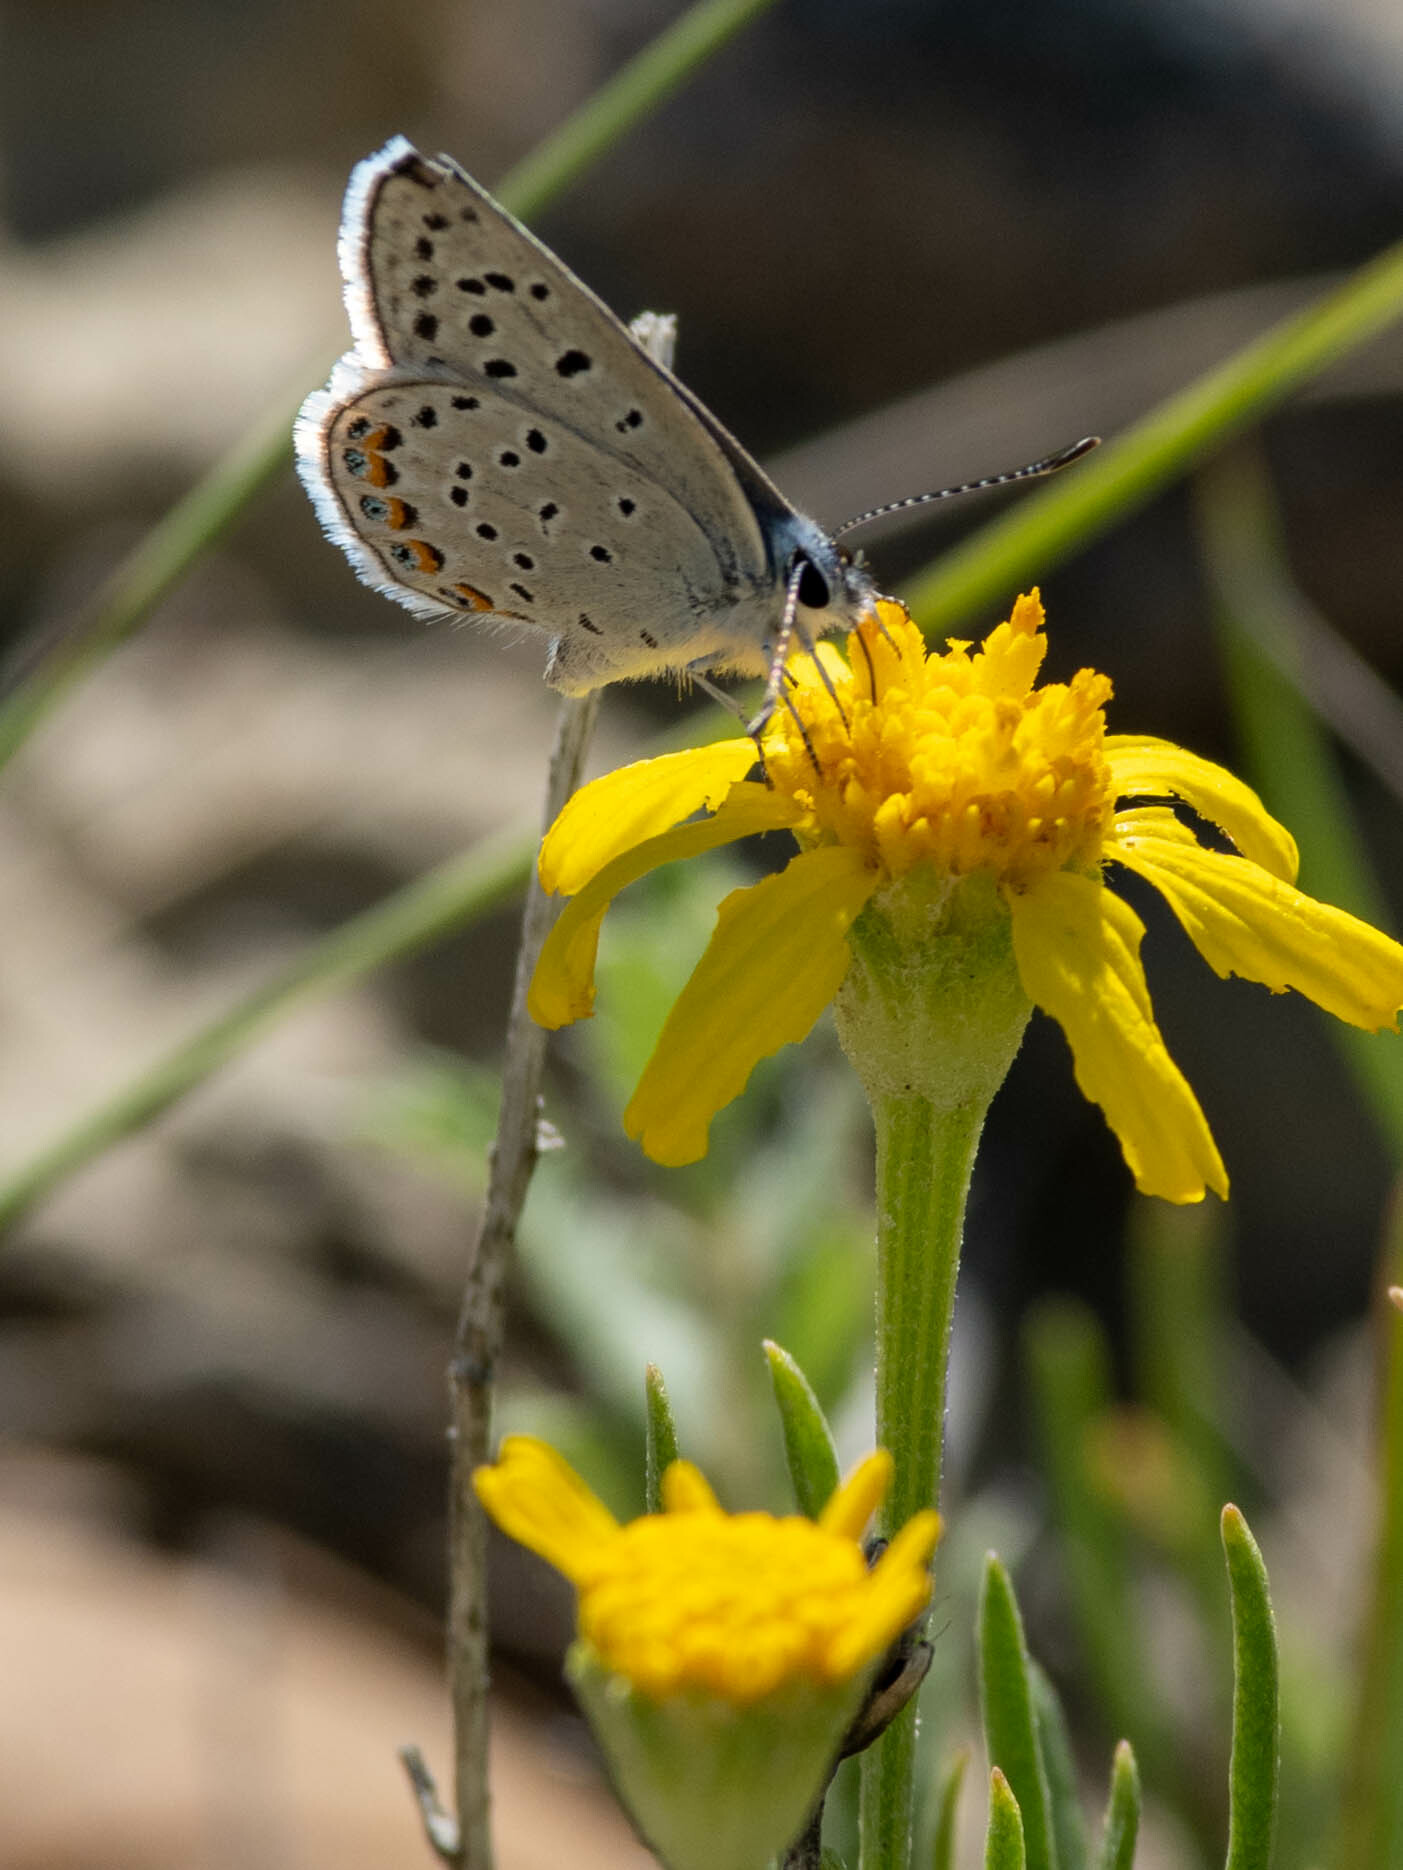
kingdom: Animalia
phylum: Arthropoda
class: Insecta
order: Lepidoptera
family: Lycaenidae
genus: Icaricia
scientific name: Icaricia lupini
